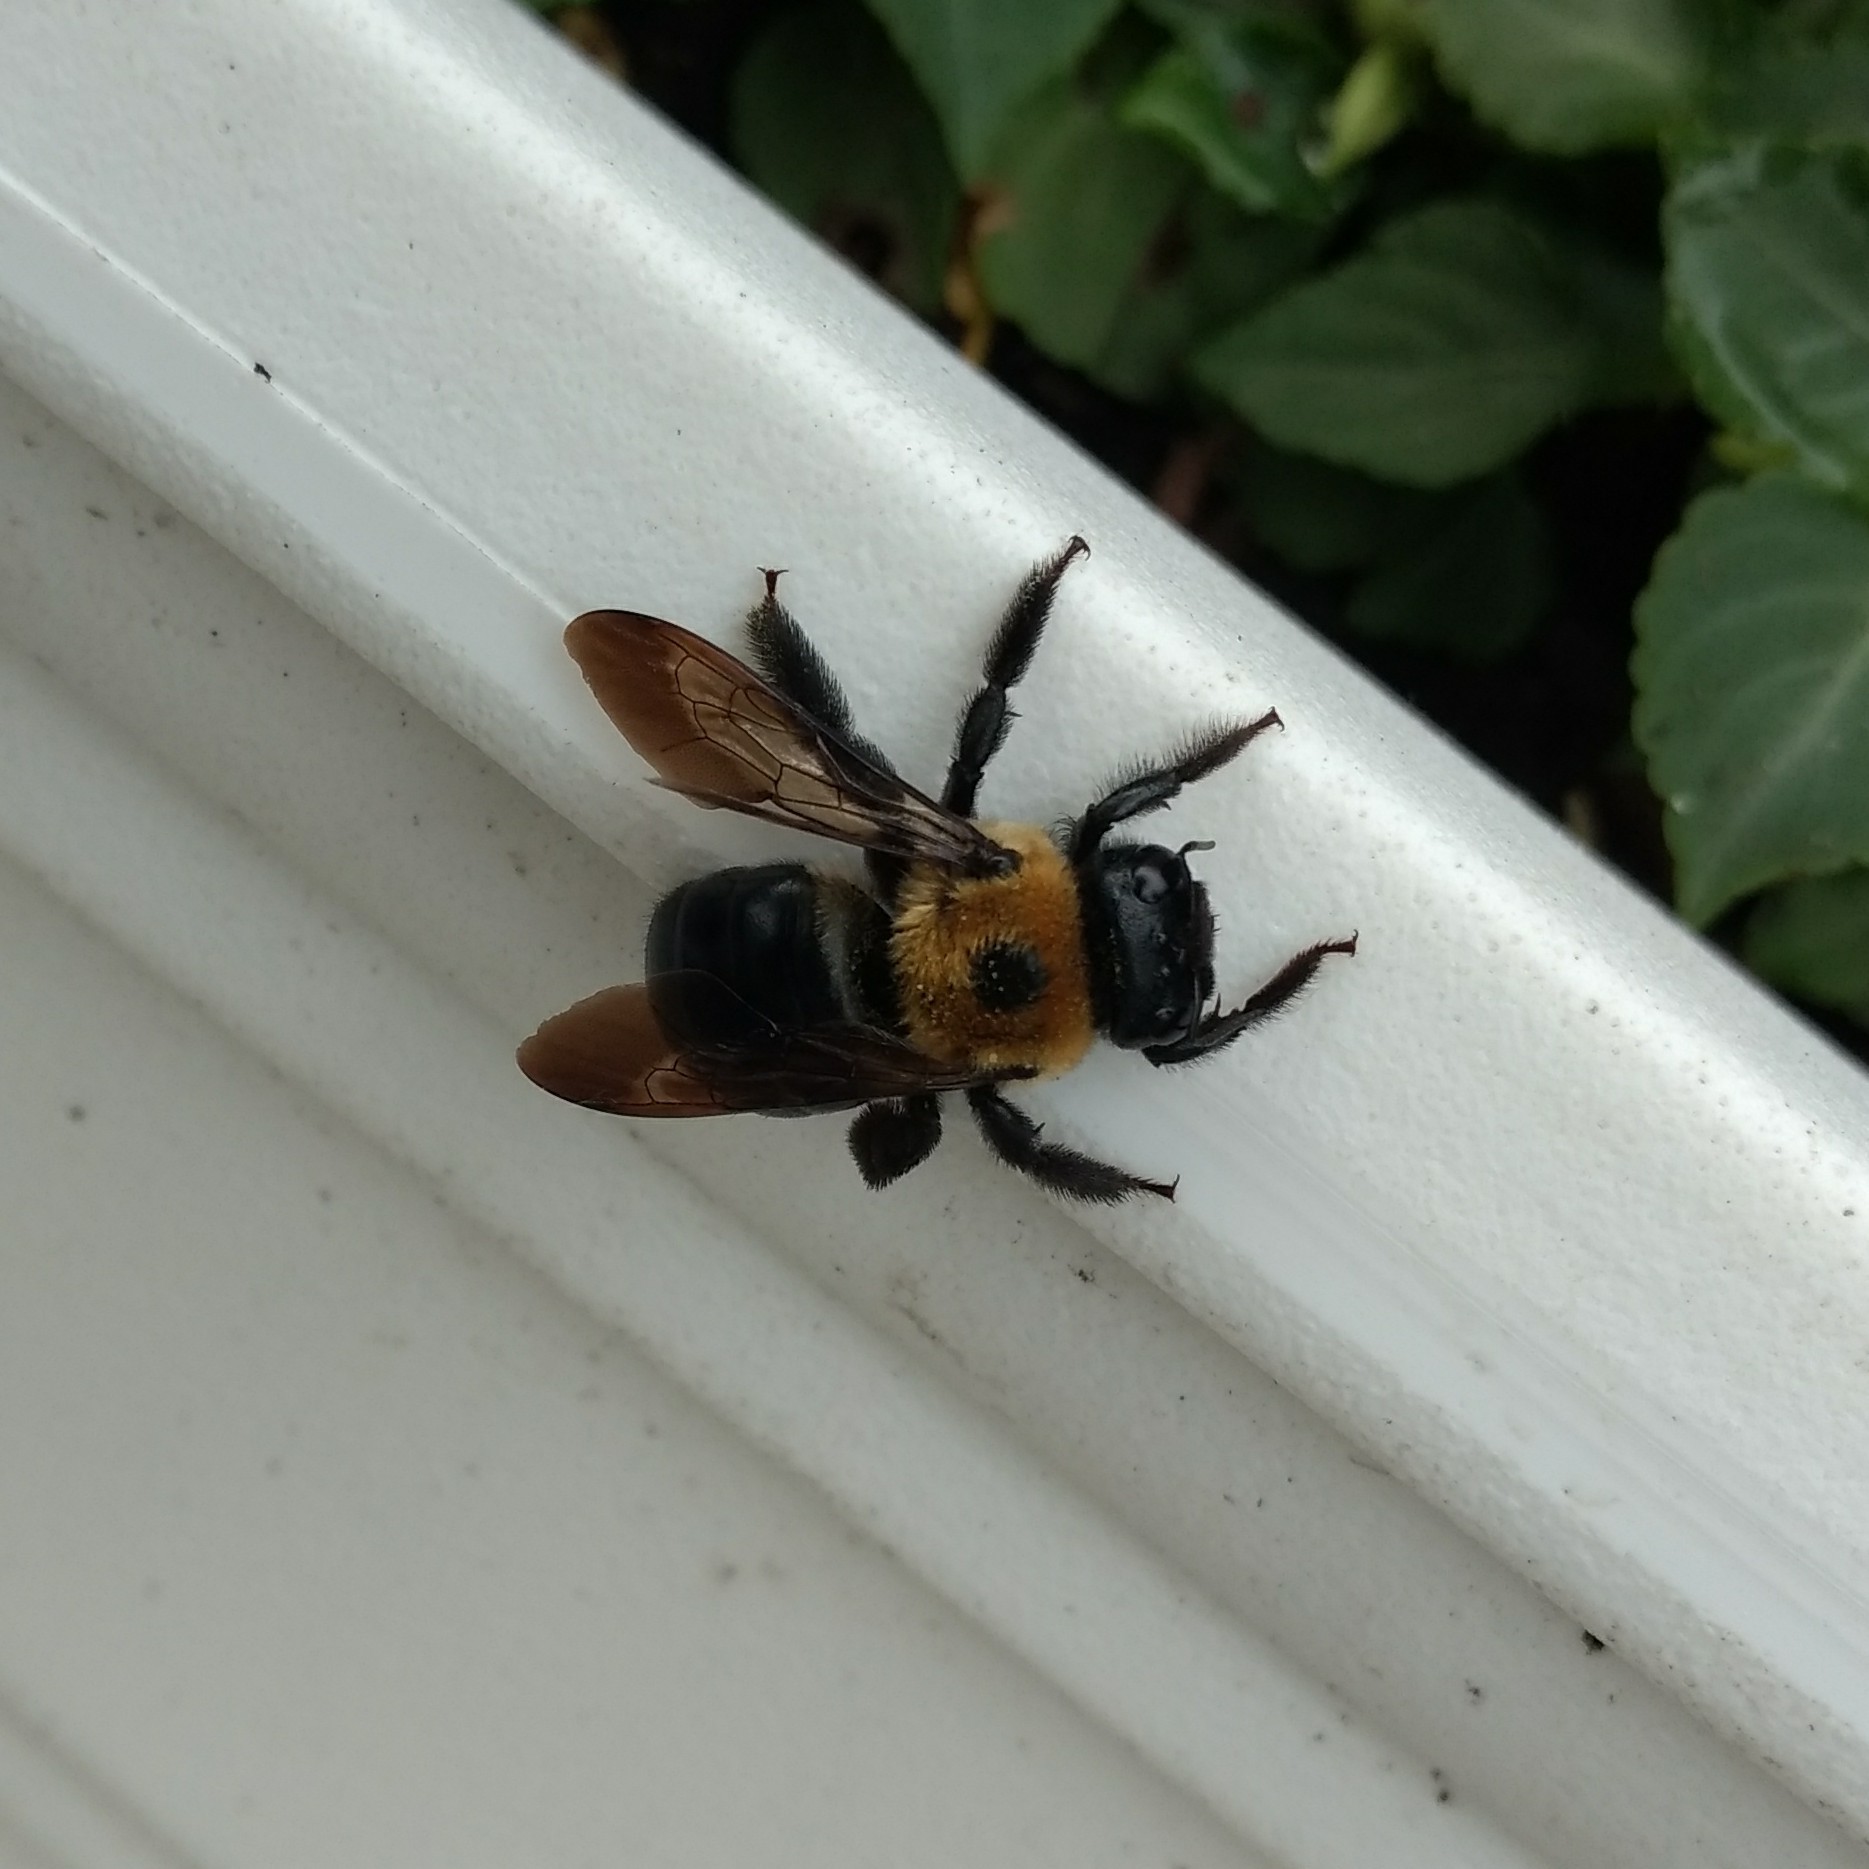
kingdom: Animalia
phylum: Arthropoda
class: Insecta
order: Hymenoptera
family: Apidae
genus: Xylocopa
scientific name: Xylocopa virginica
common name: Carpenter bee
